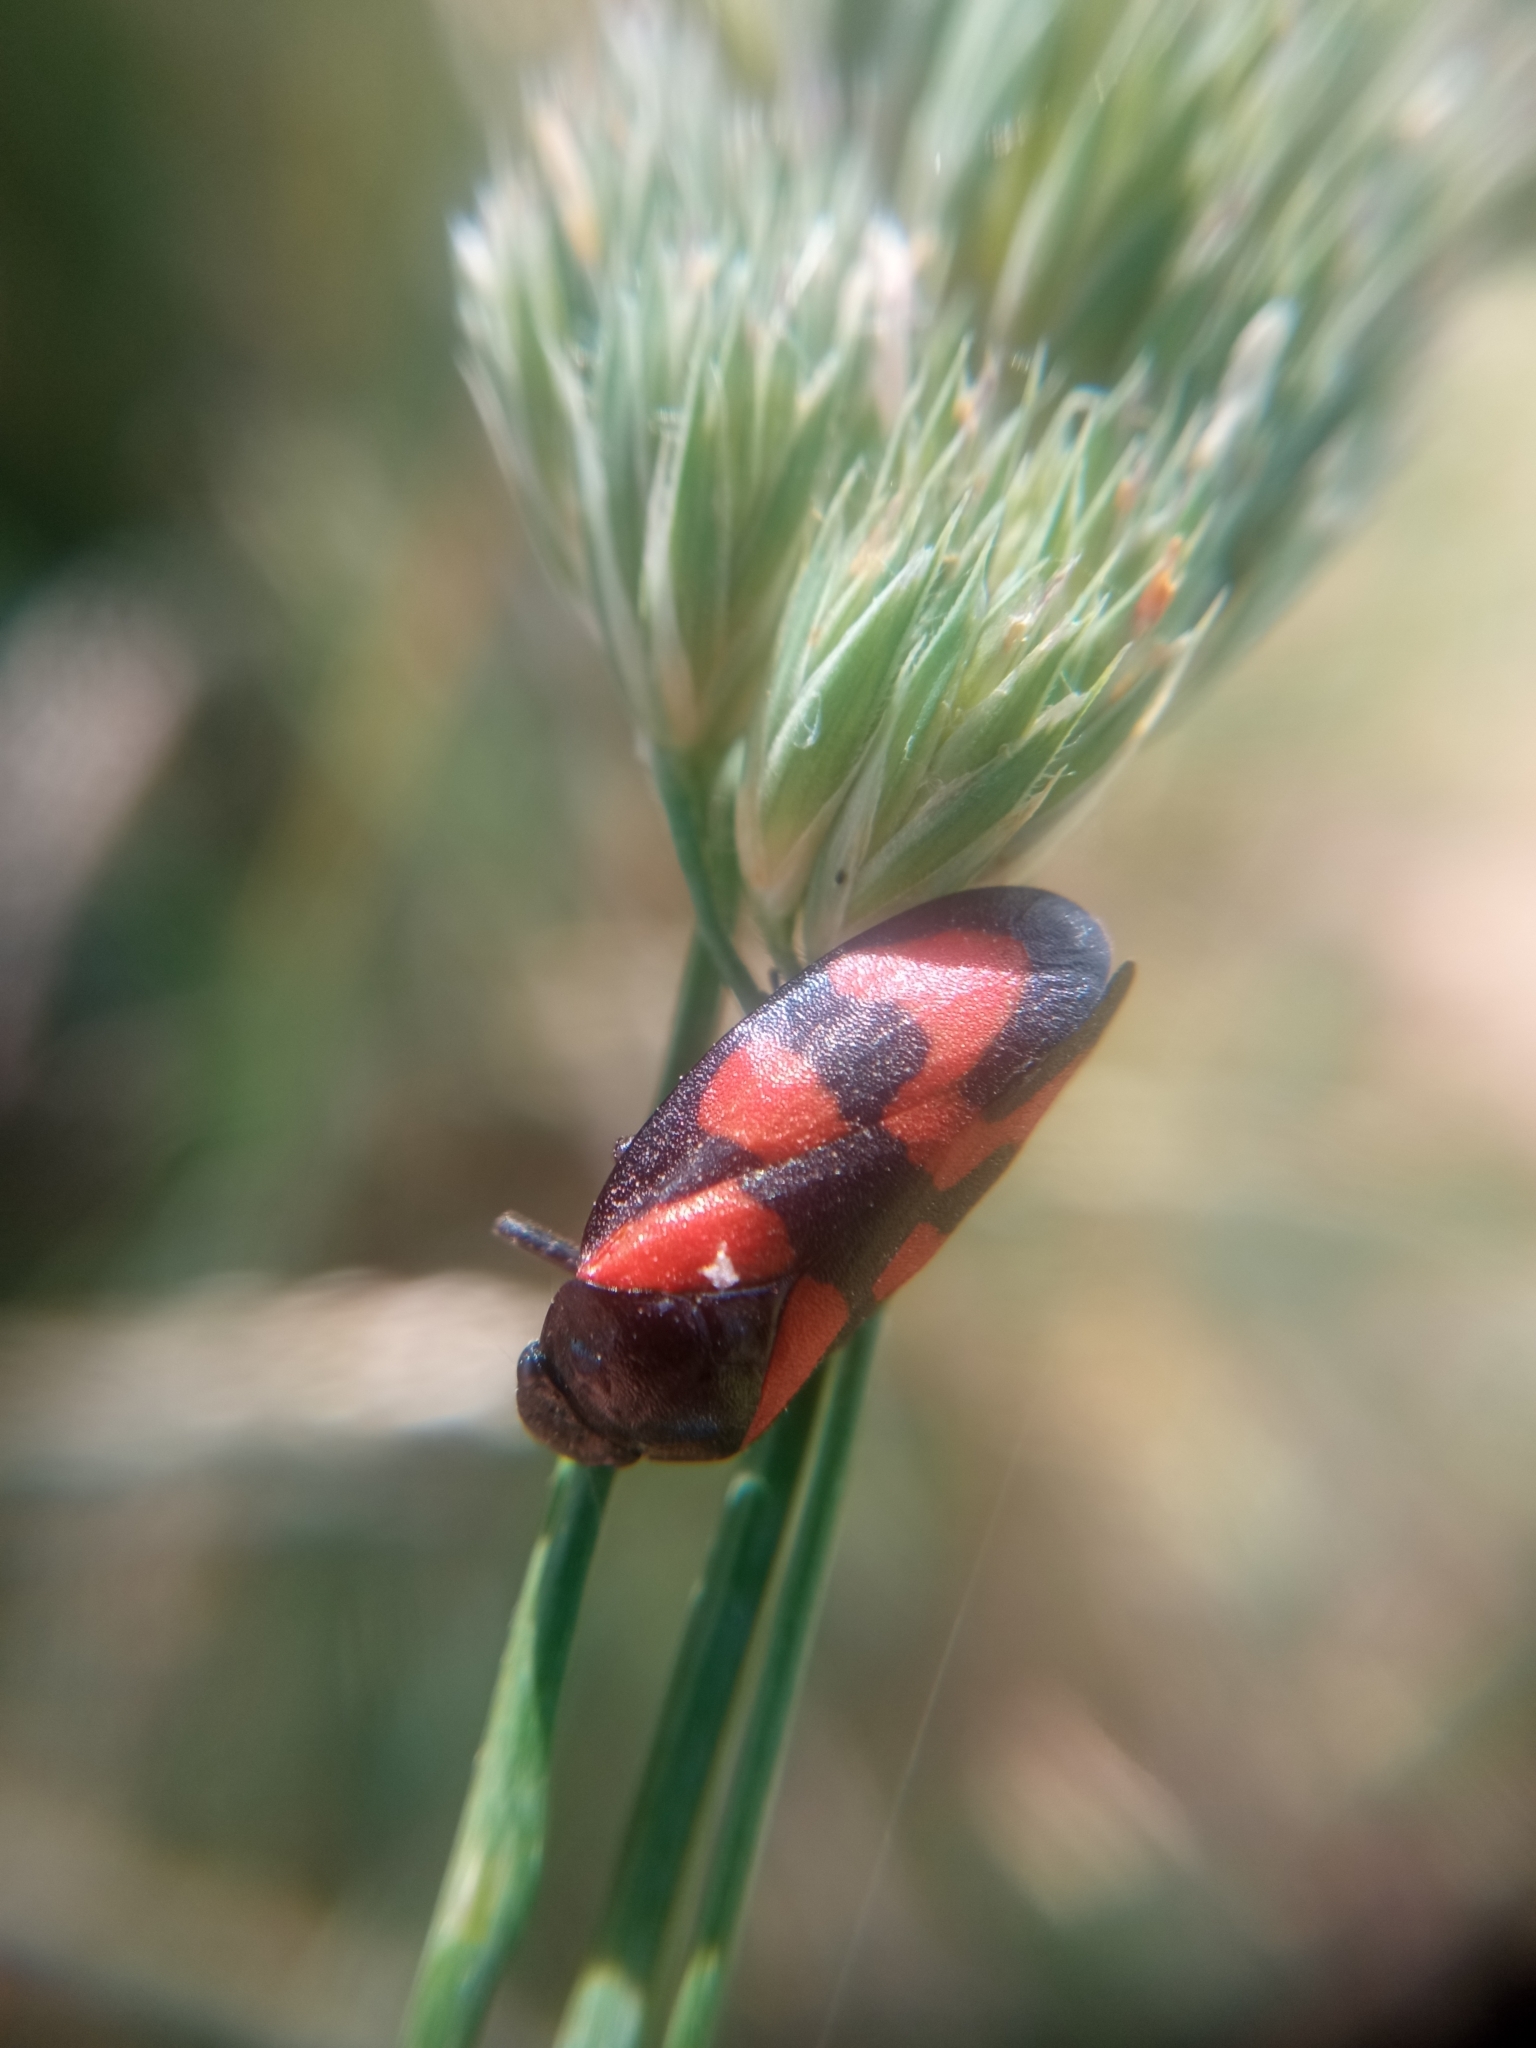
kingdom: Animalia
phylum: Arthropoda
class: Insecta
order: Hemiptera
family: Cercopidae
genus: Cercopis
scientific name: Cercopis vulnerata
